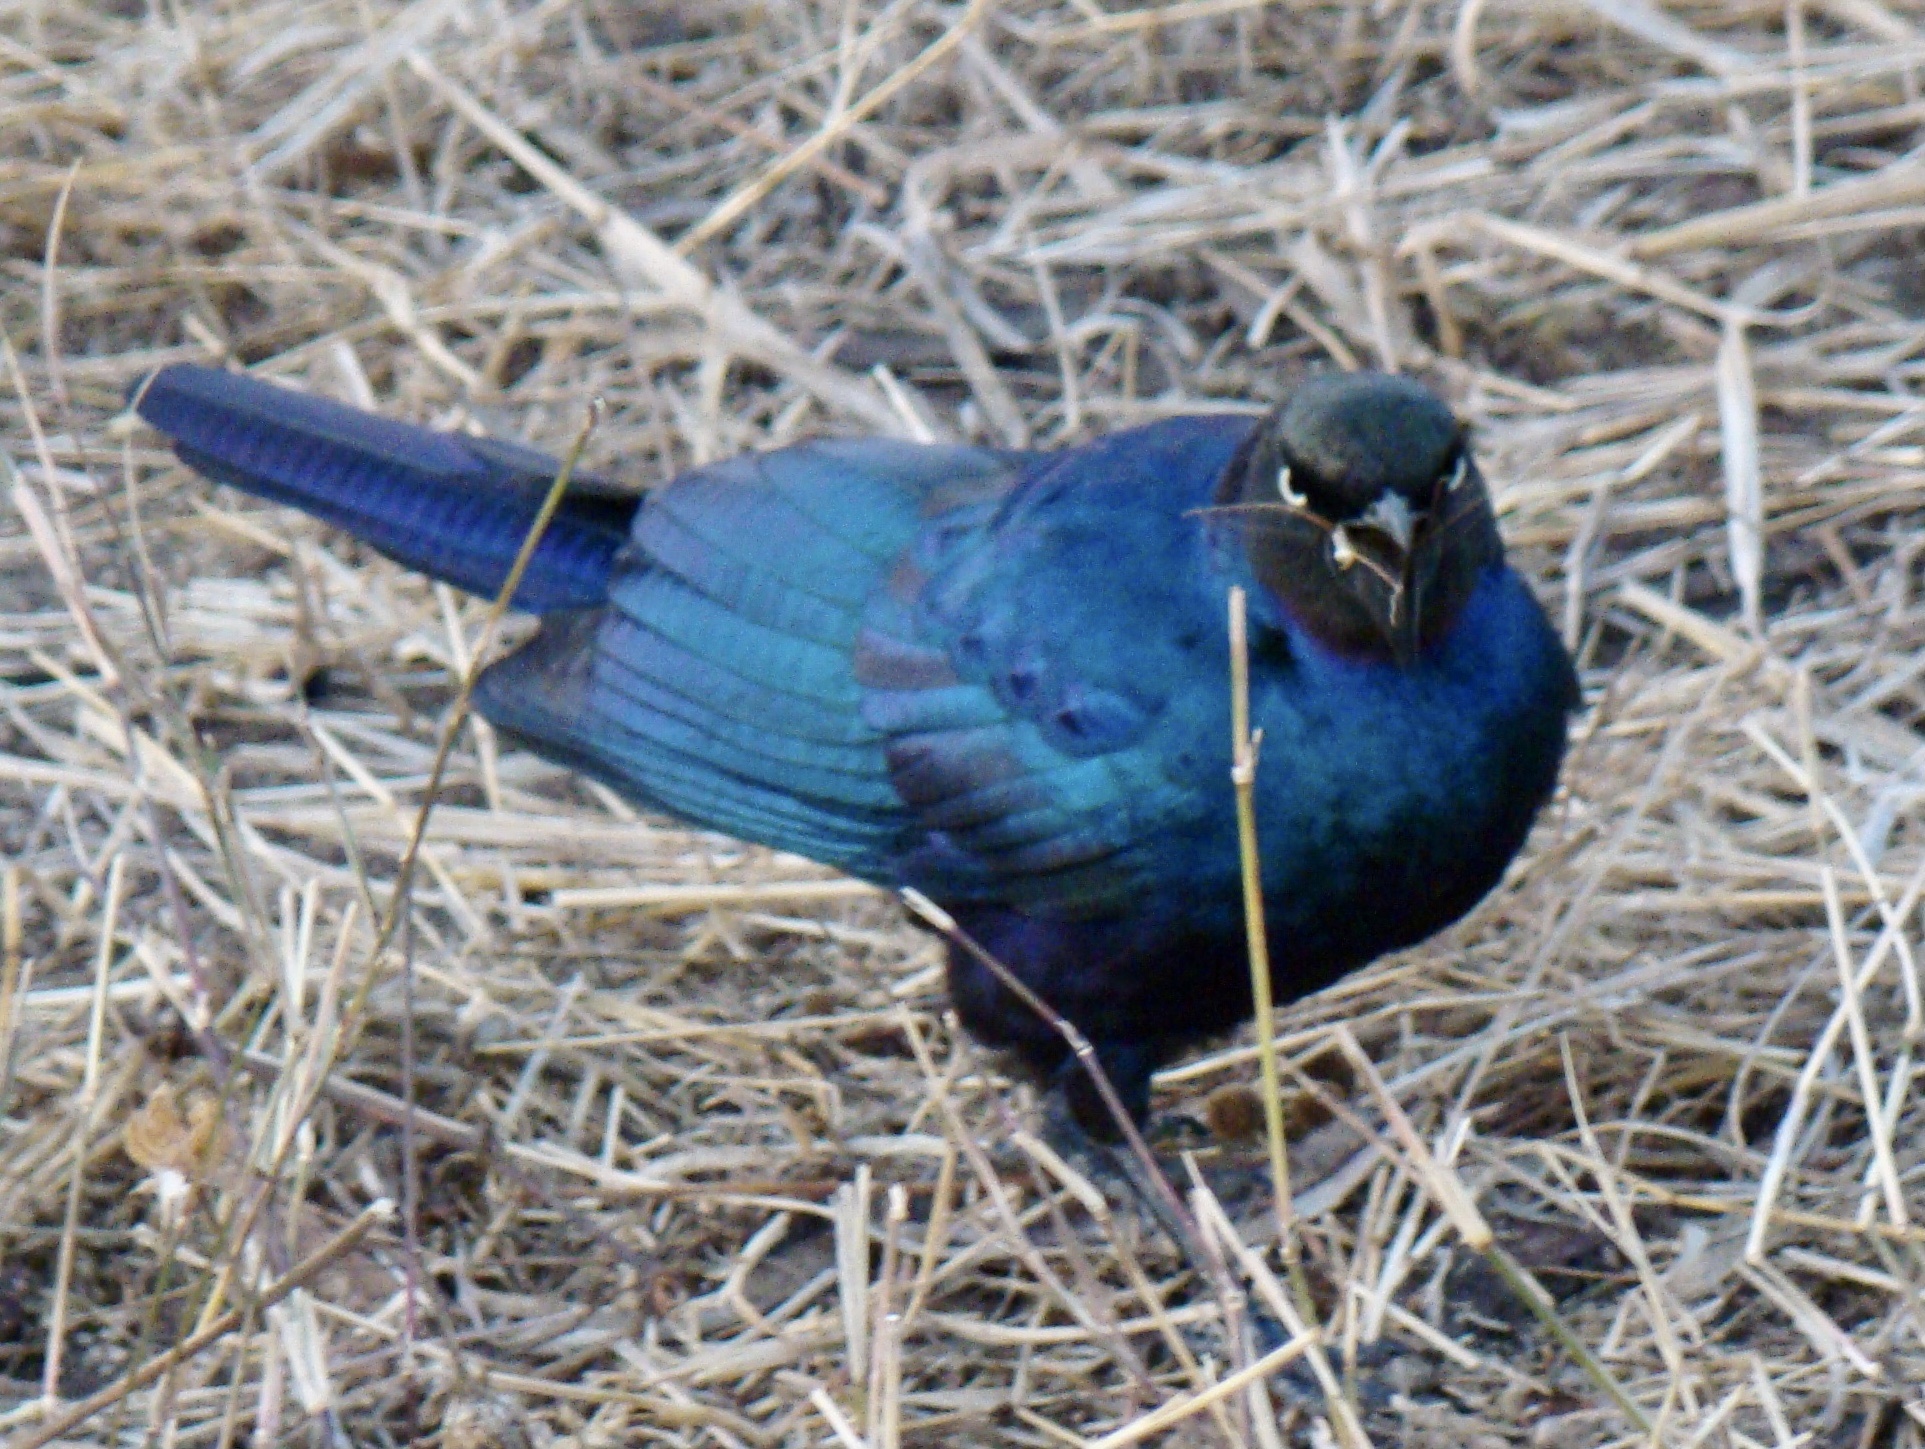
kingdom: Animalia
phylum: Chordata
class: Aves
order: Passeriformes
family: Sturnidae
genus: Lamprotornis
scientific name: Lamprotornis purpuroptera
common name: Rüppell's starling
